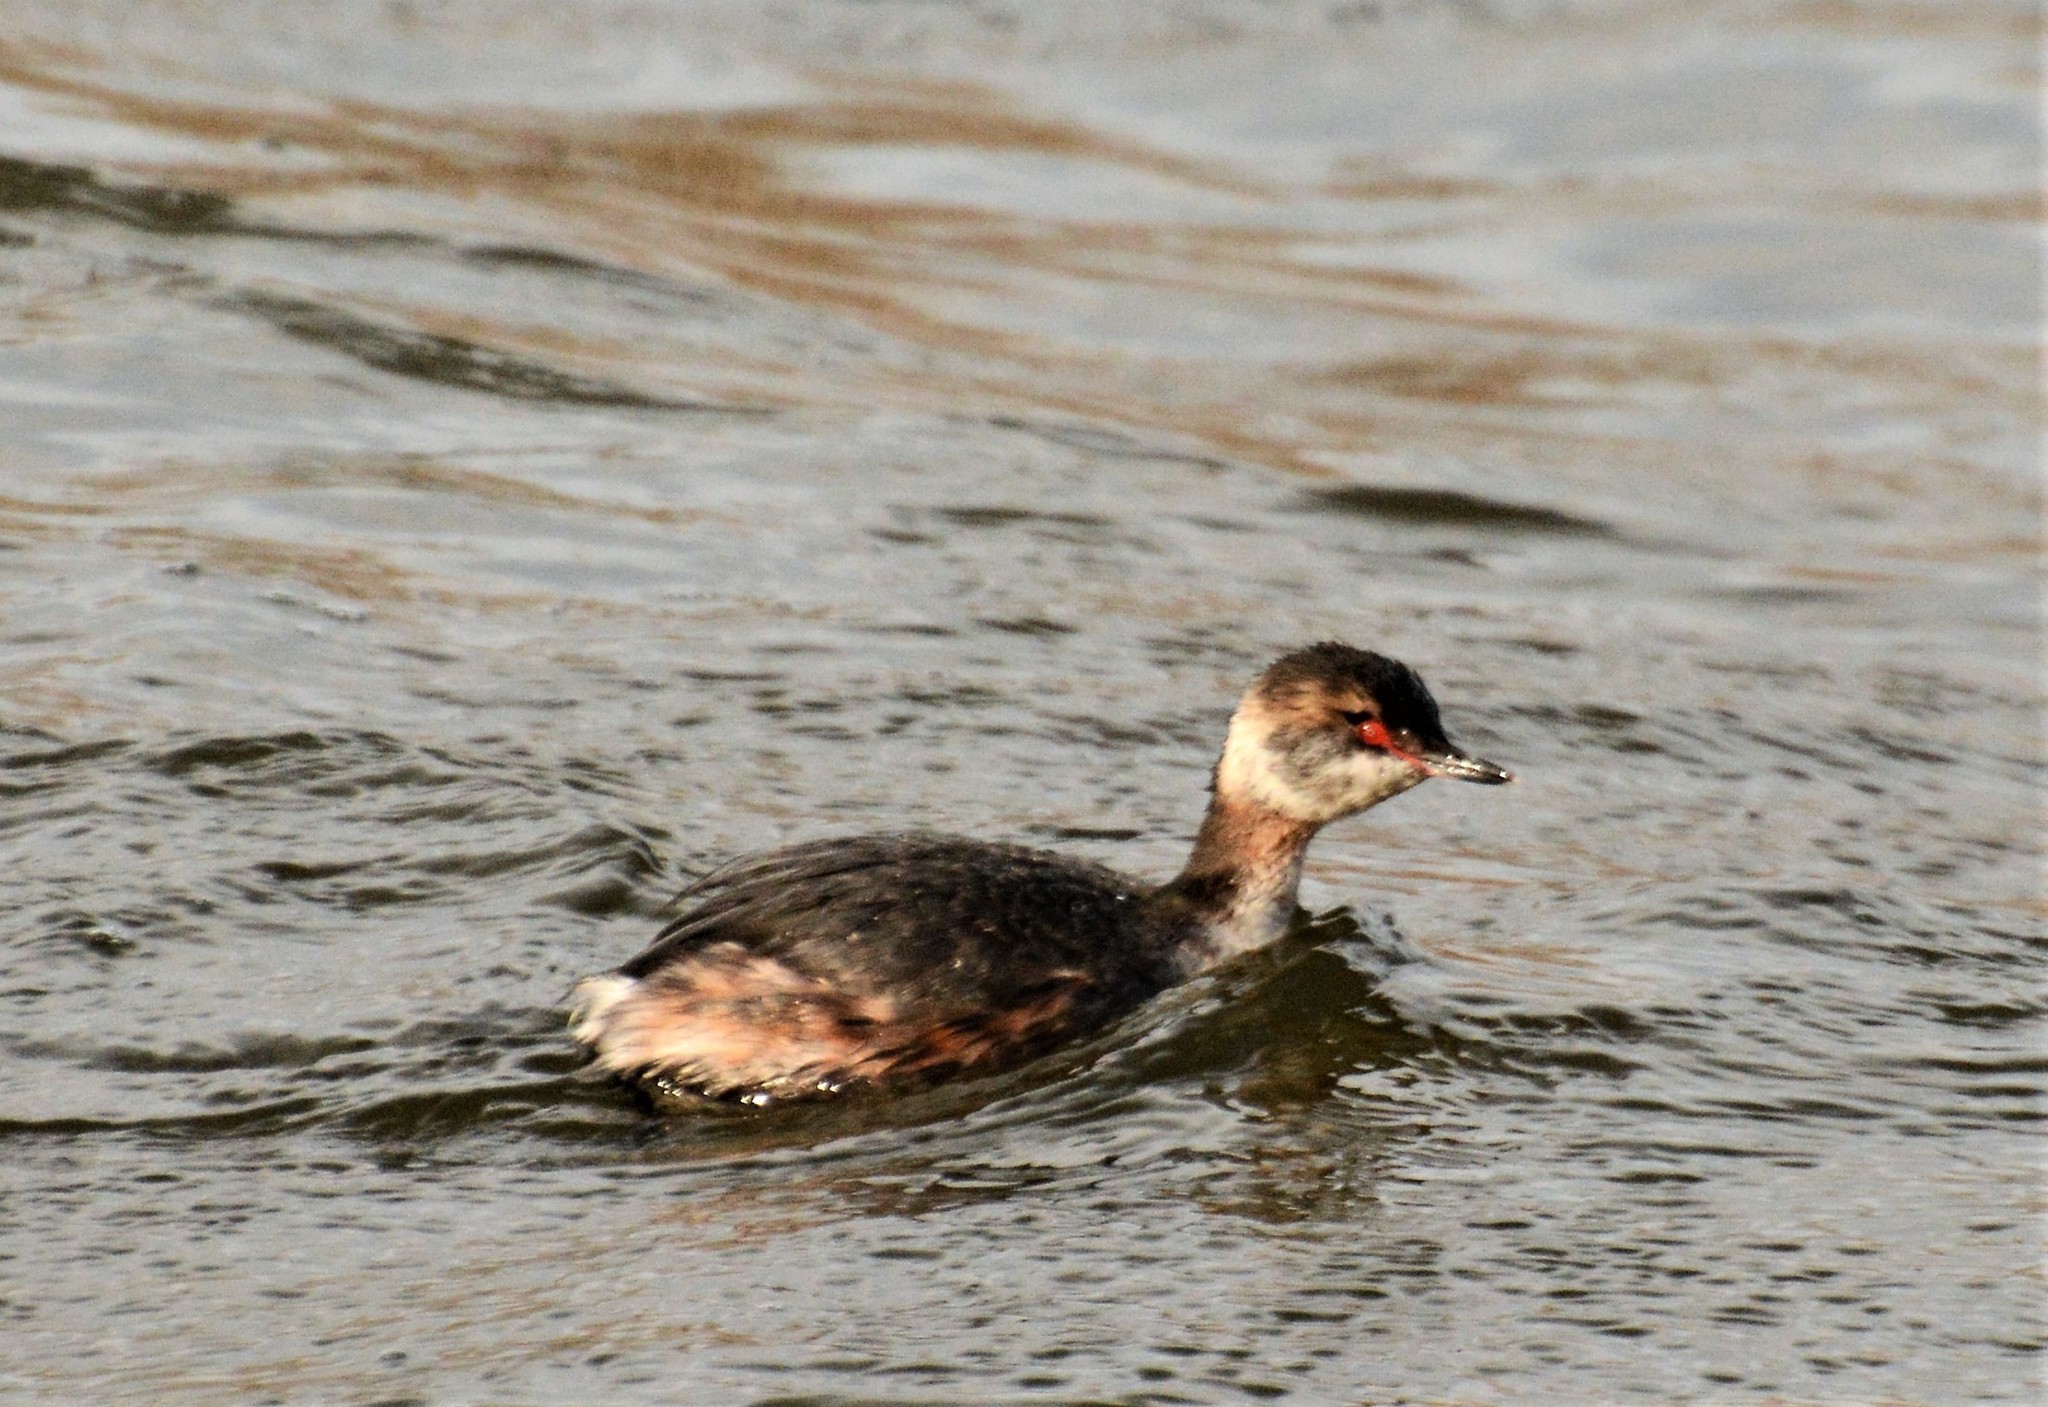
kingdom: Animalia
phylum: Chordata
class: Aves
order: Podicipediformes
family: Podicipedidae
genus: Podiceps
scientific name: Podiceps auritus
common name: Horned grebe
